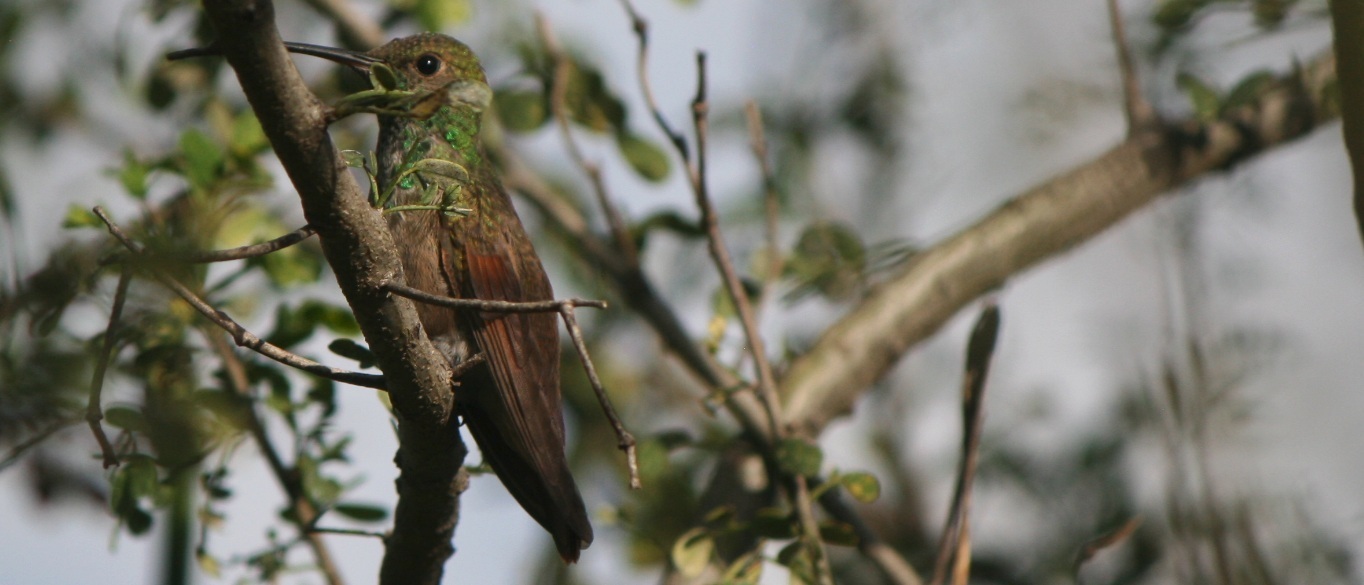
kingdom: Animalia
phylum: Chordata
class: Aves
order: Apodiformes
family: Trochilidae
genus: Saucerottia
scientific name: Saucerottia beryllina
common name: Berylline hummingbird
